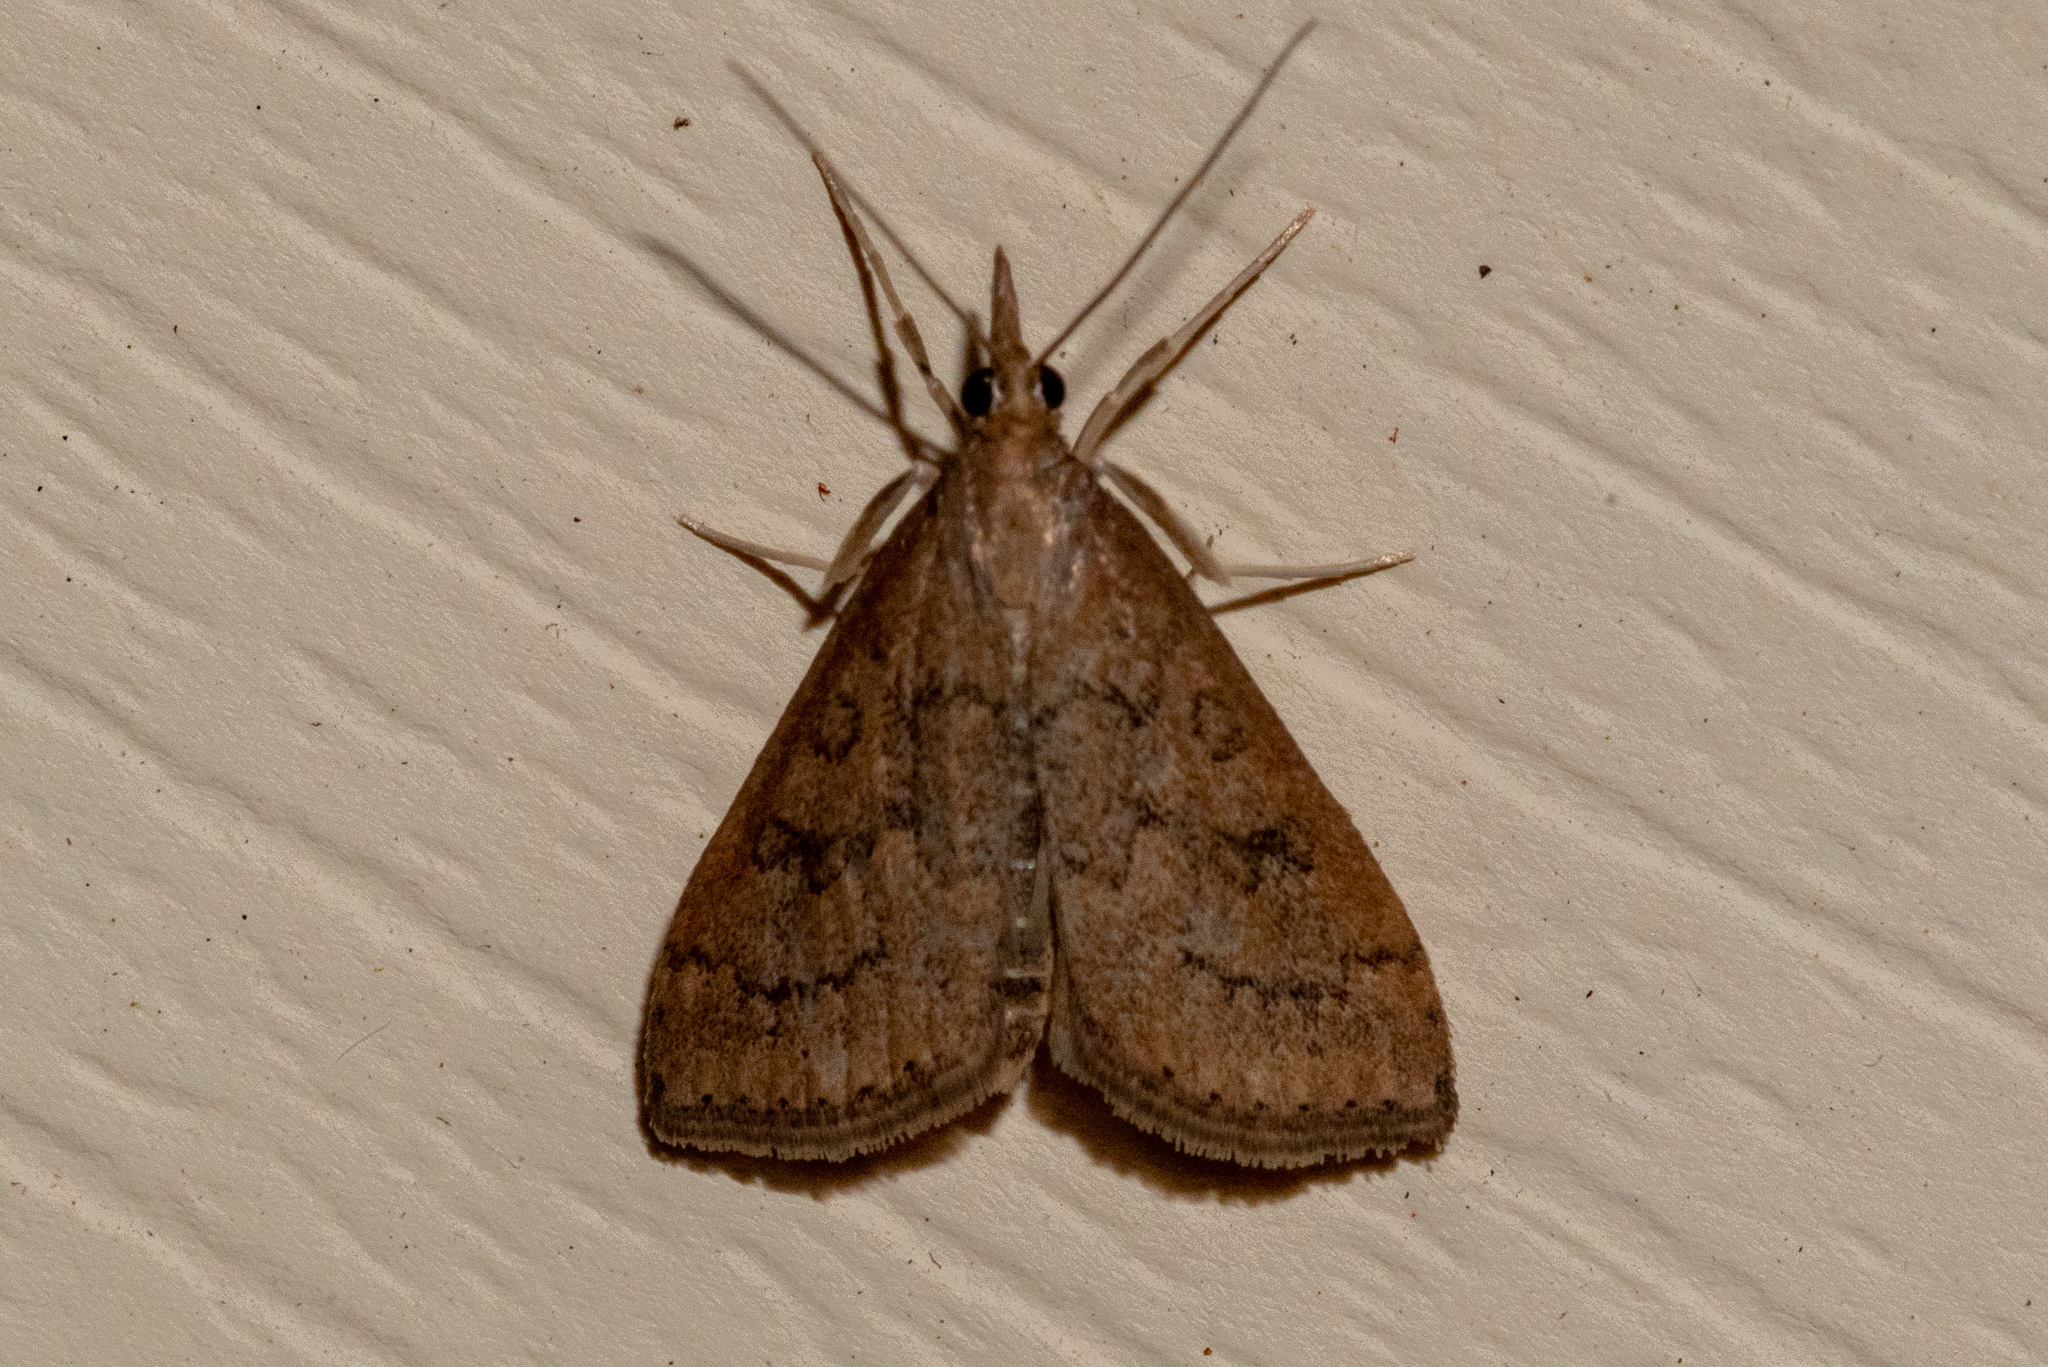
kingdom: Animalia
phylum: Arthropoda
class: Insecta
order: Lepidoptera
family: Crambidae
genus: Udea
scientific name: Udea rubigalis
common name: Celery leaftier moth
